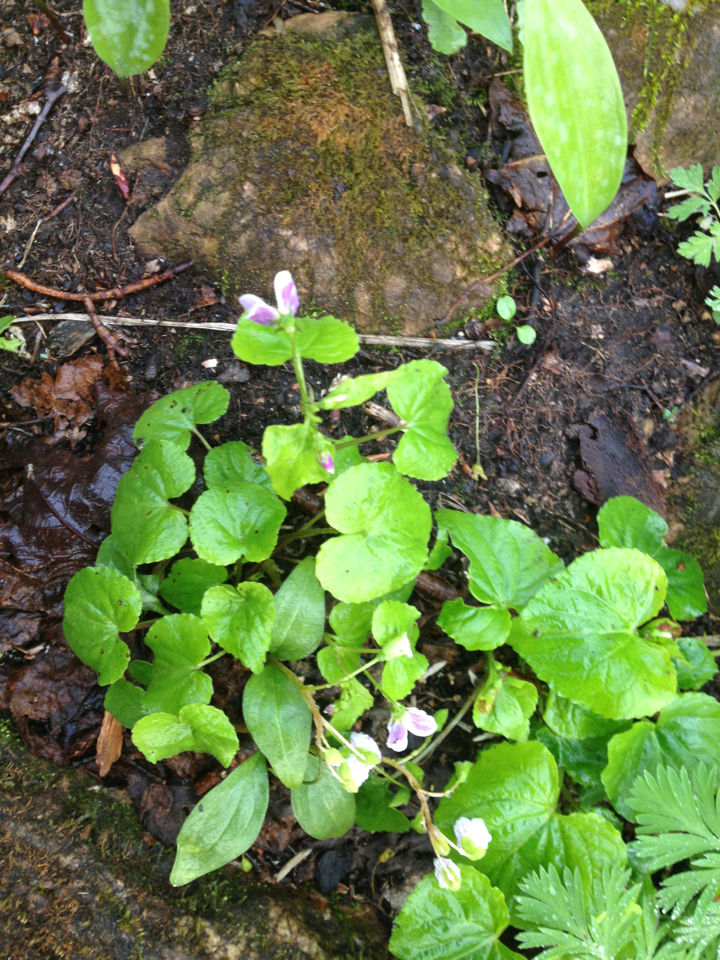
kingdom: Plantae
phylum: Tracheophyta
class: Magnoliopsida
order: Malpighiales
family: Violaceae
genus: Viola
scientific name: Viola canadensis
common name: Canada violet
